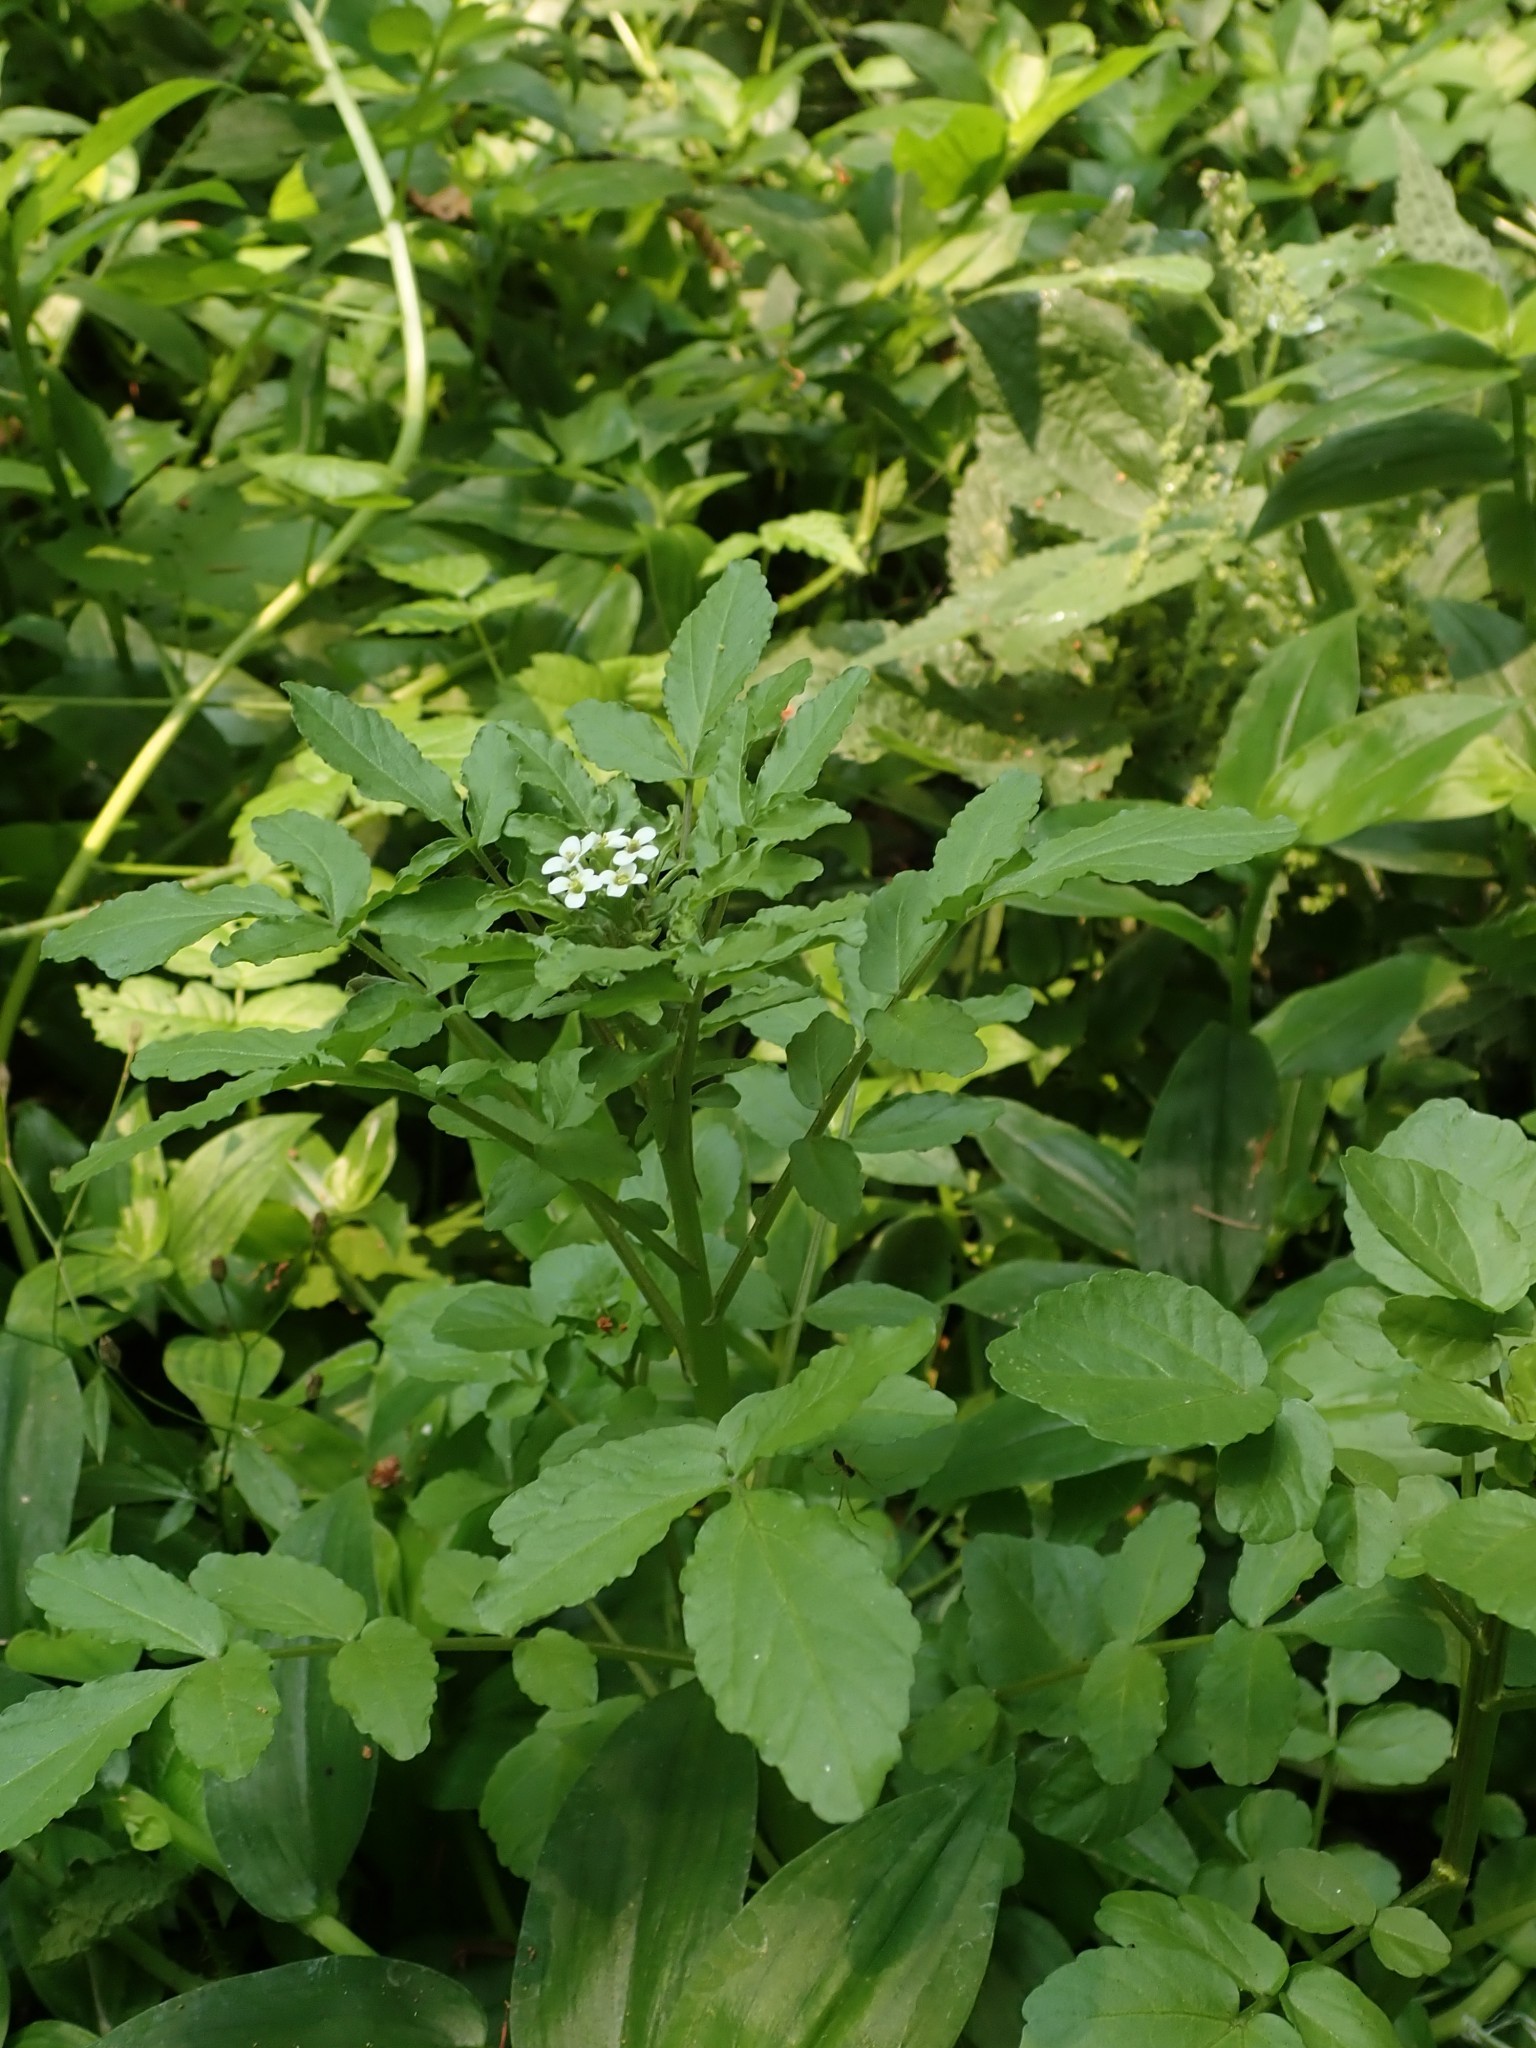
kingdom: Plantae
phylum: Tracheophyta
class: Magnoliopsida
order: Brassicales
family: Brassicaceae
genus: Nasturtium
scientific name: Nasturtium officinale
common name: Watercress
